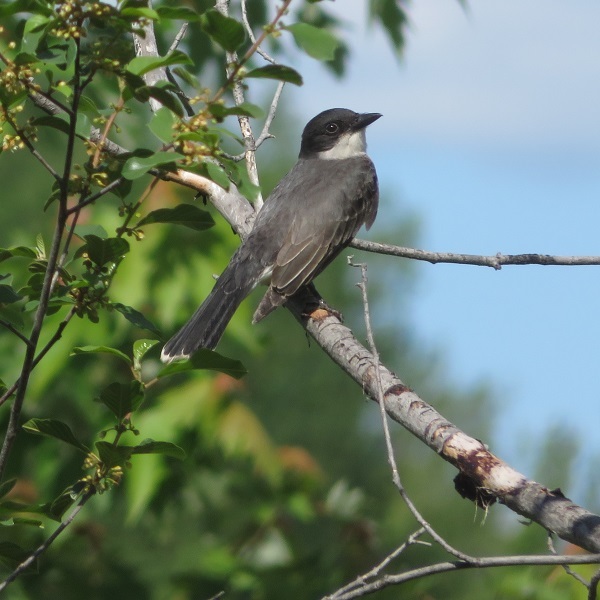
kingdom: Animalia
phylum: Chordata
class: Aves
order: Passeriformes
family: Tyrannidae
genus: Tyrannus
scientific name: Tyrannus tyrannus
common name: Eastern kingbird
